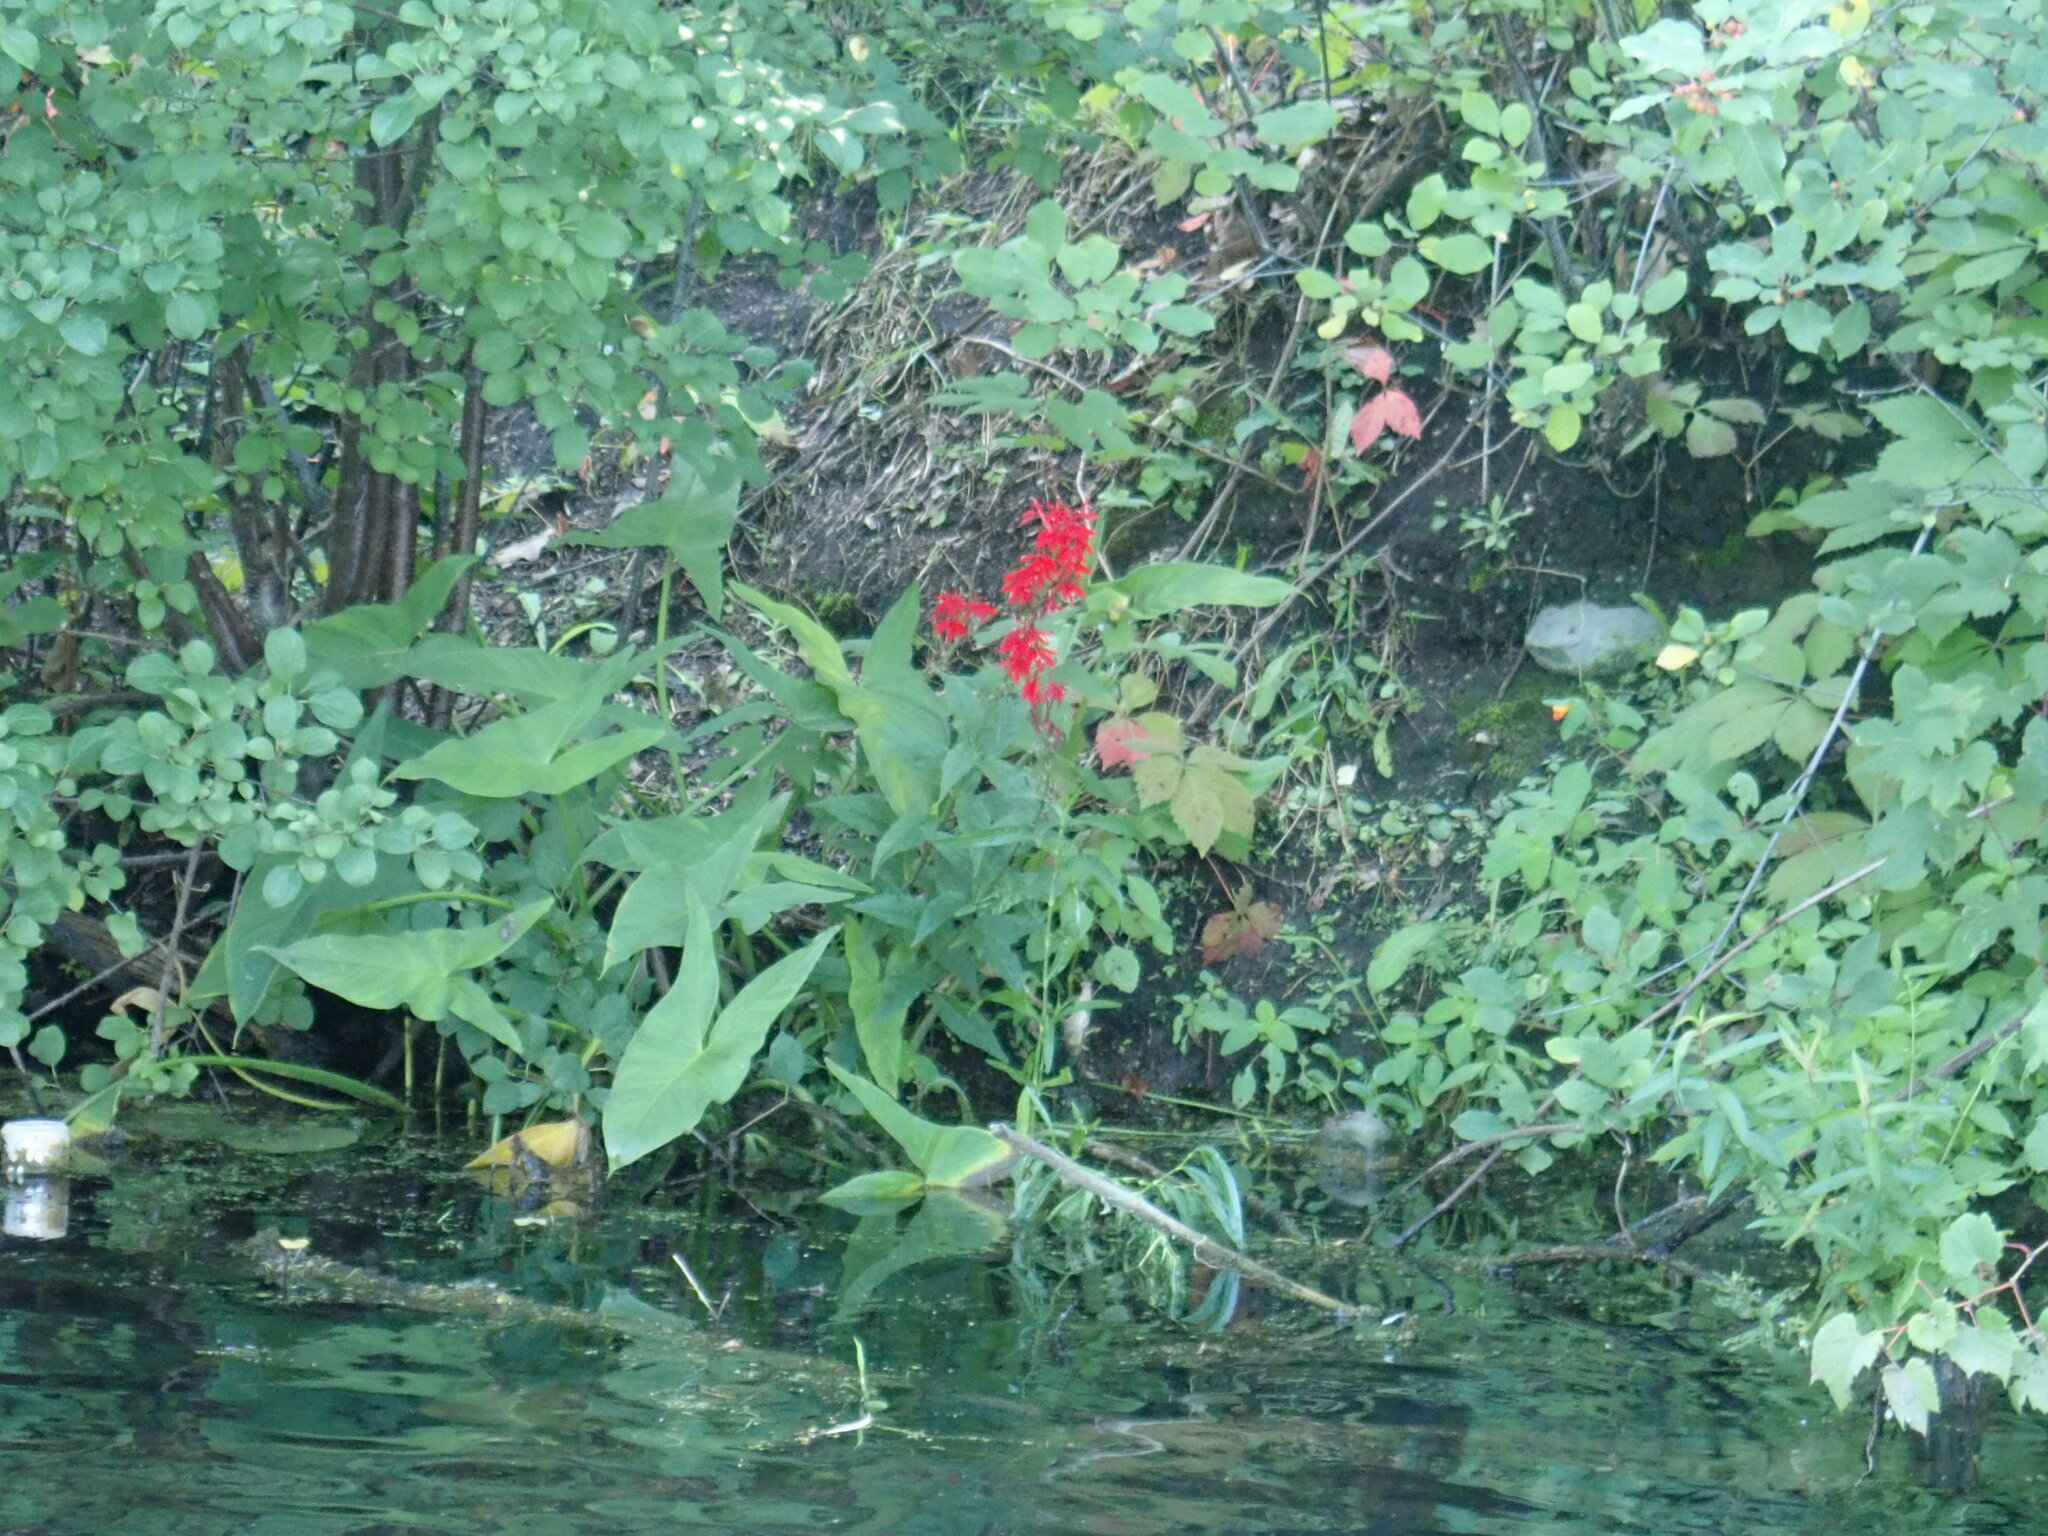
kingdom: Plantae
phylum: Tracheophyta
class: Magnoliopsida
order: Asterales
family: Campanulaceae
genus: Lobelia
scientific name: Lobelia cardinalis
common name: Cardinal flower
